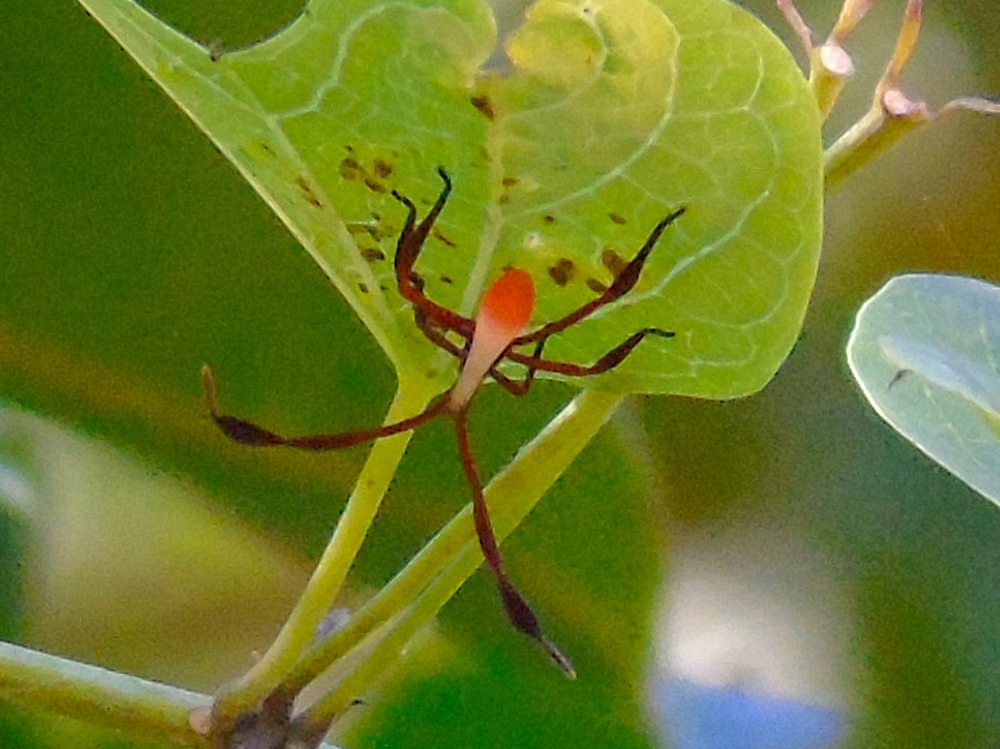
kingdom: Animalia
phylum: Arthropoda
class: Insecta
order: Hemiptera
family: Coreidae
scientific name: Coreidae
